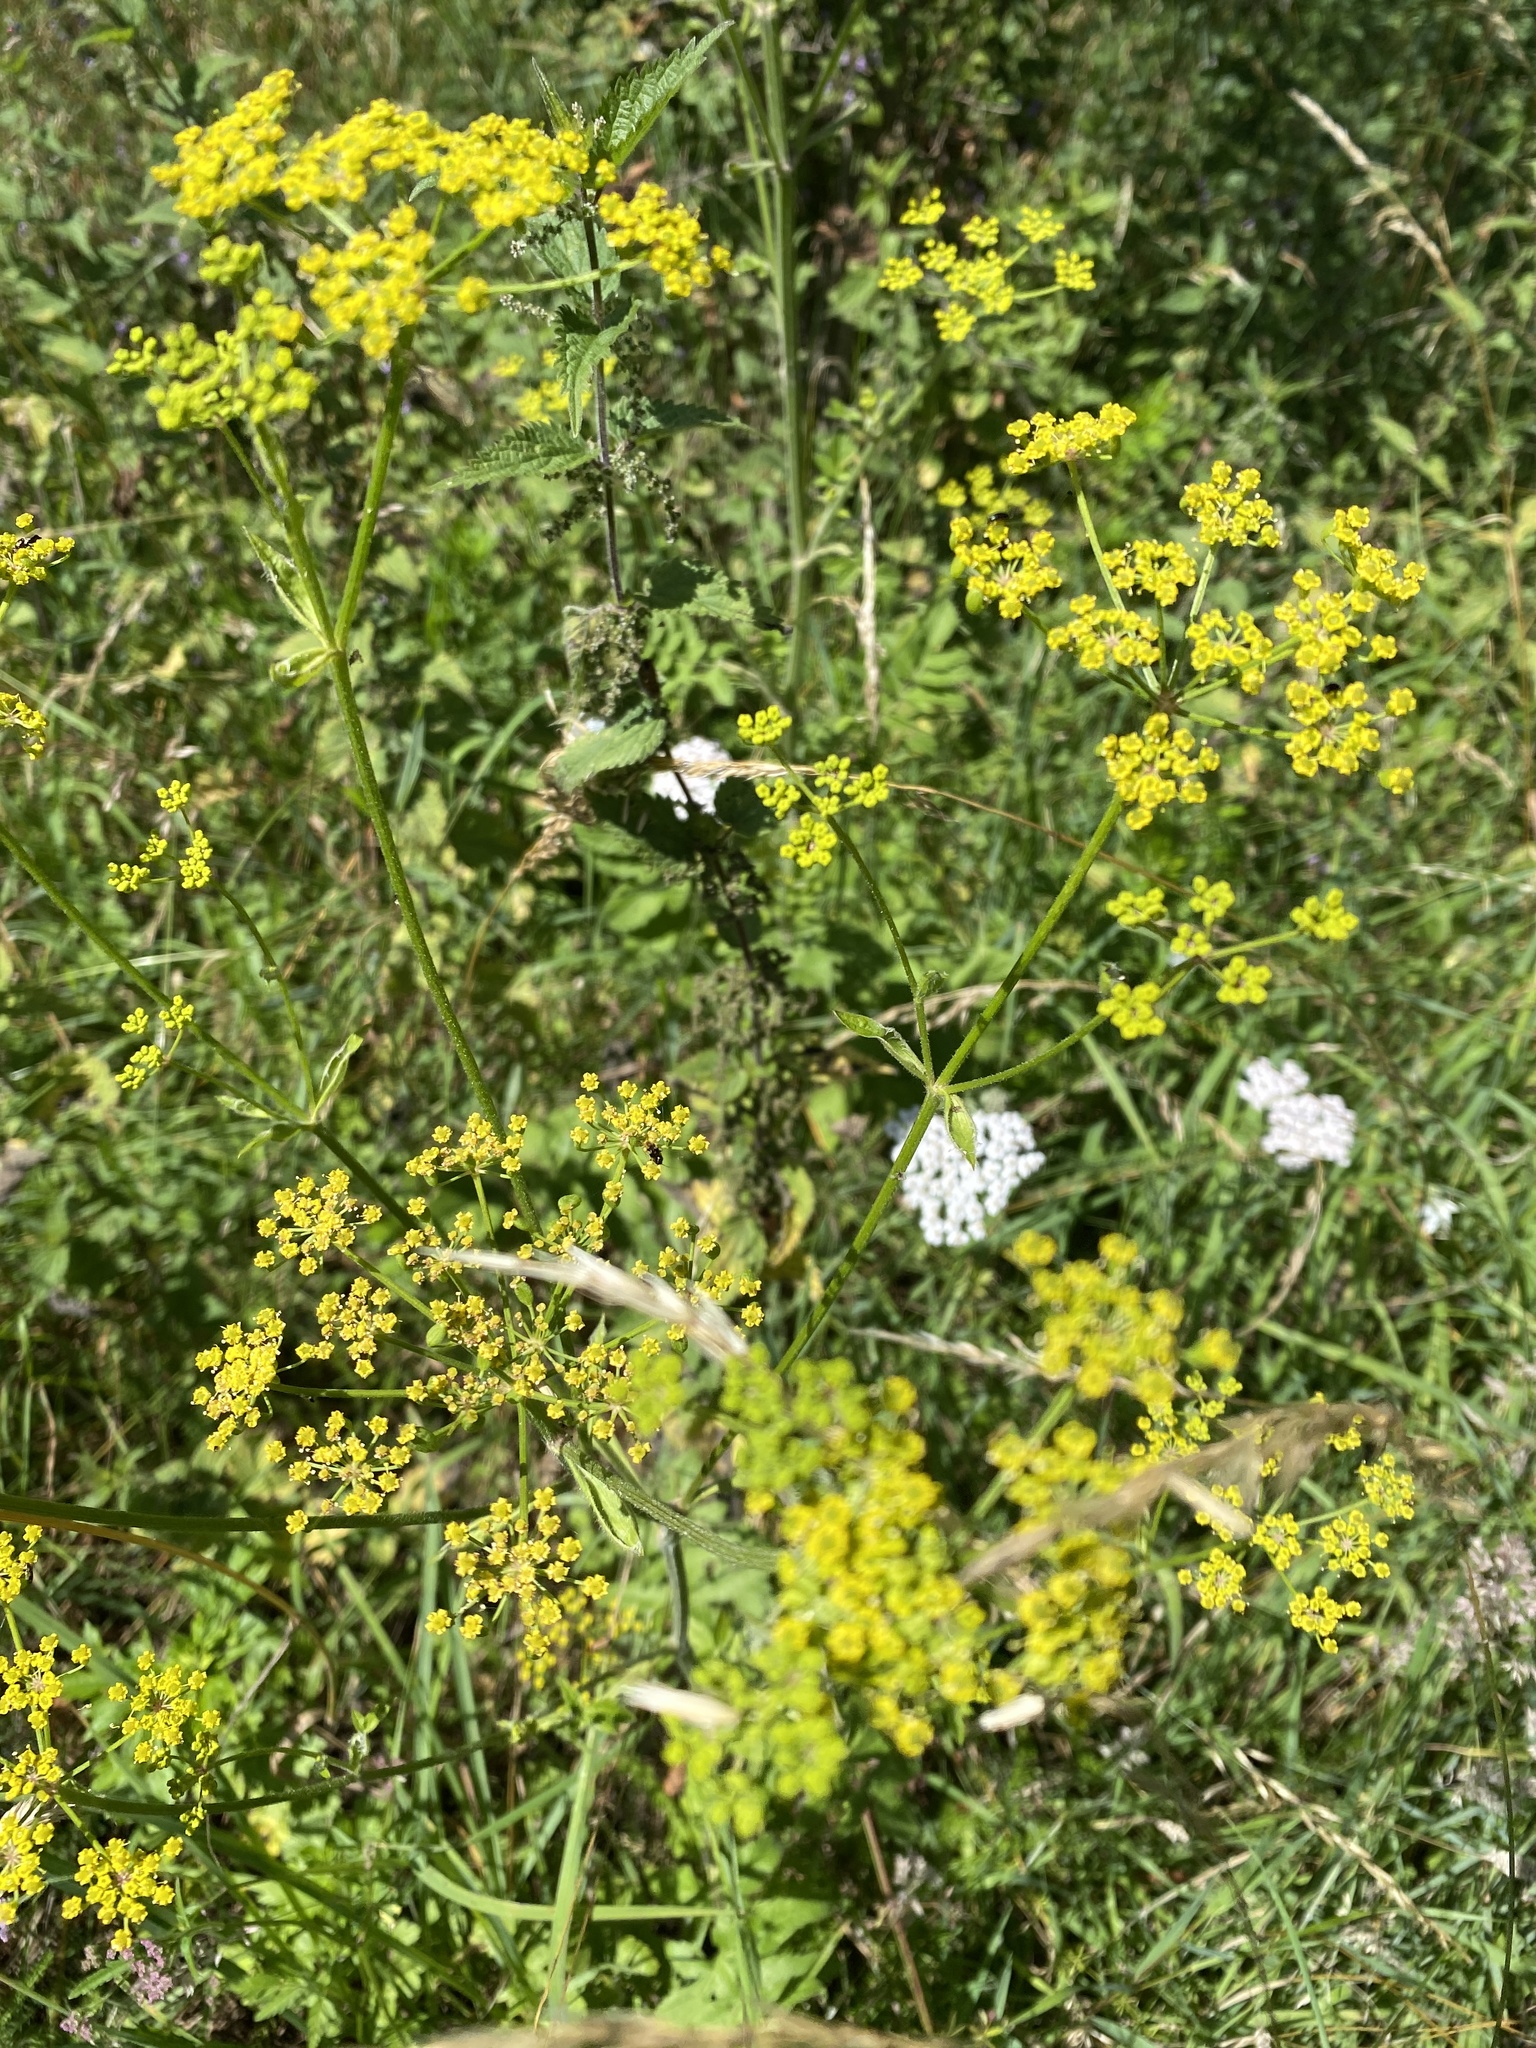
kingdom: Plantae
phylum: Tracheophyta
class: Magnoliopsida
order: Apiales
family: Apiaceae
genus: Pastinaca
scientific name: Pastinaca sativa
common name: Wild parsnip
